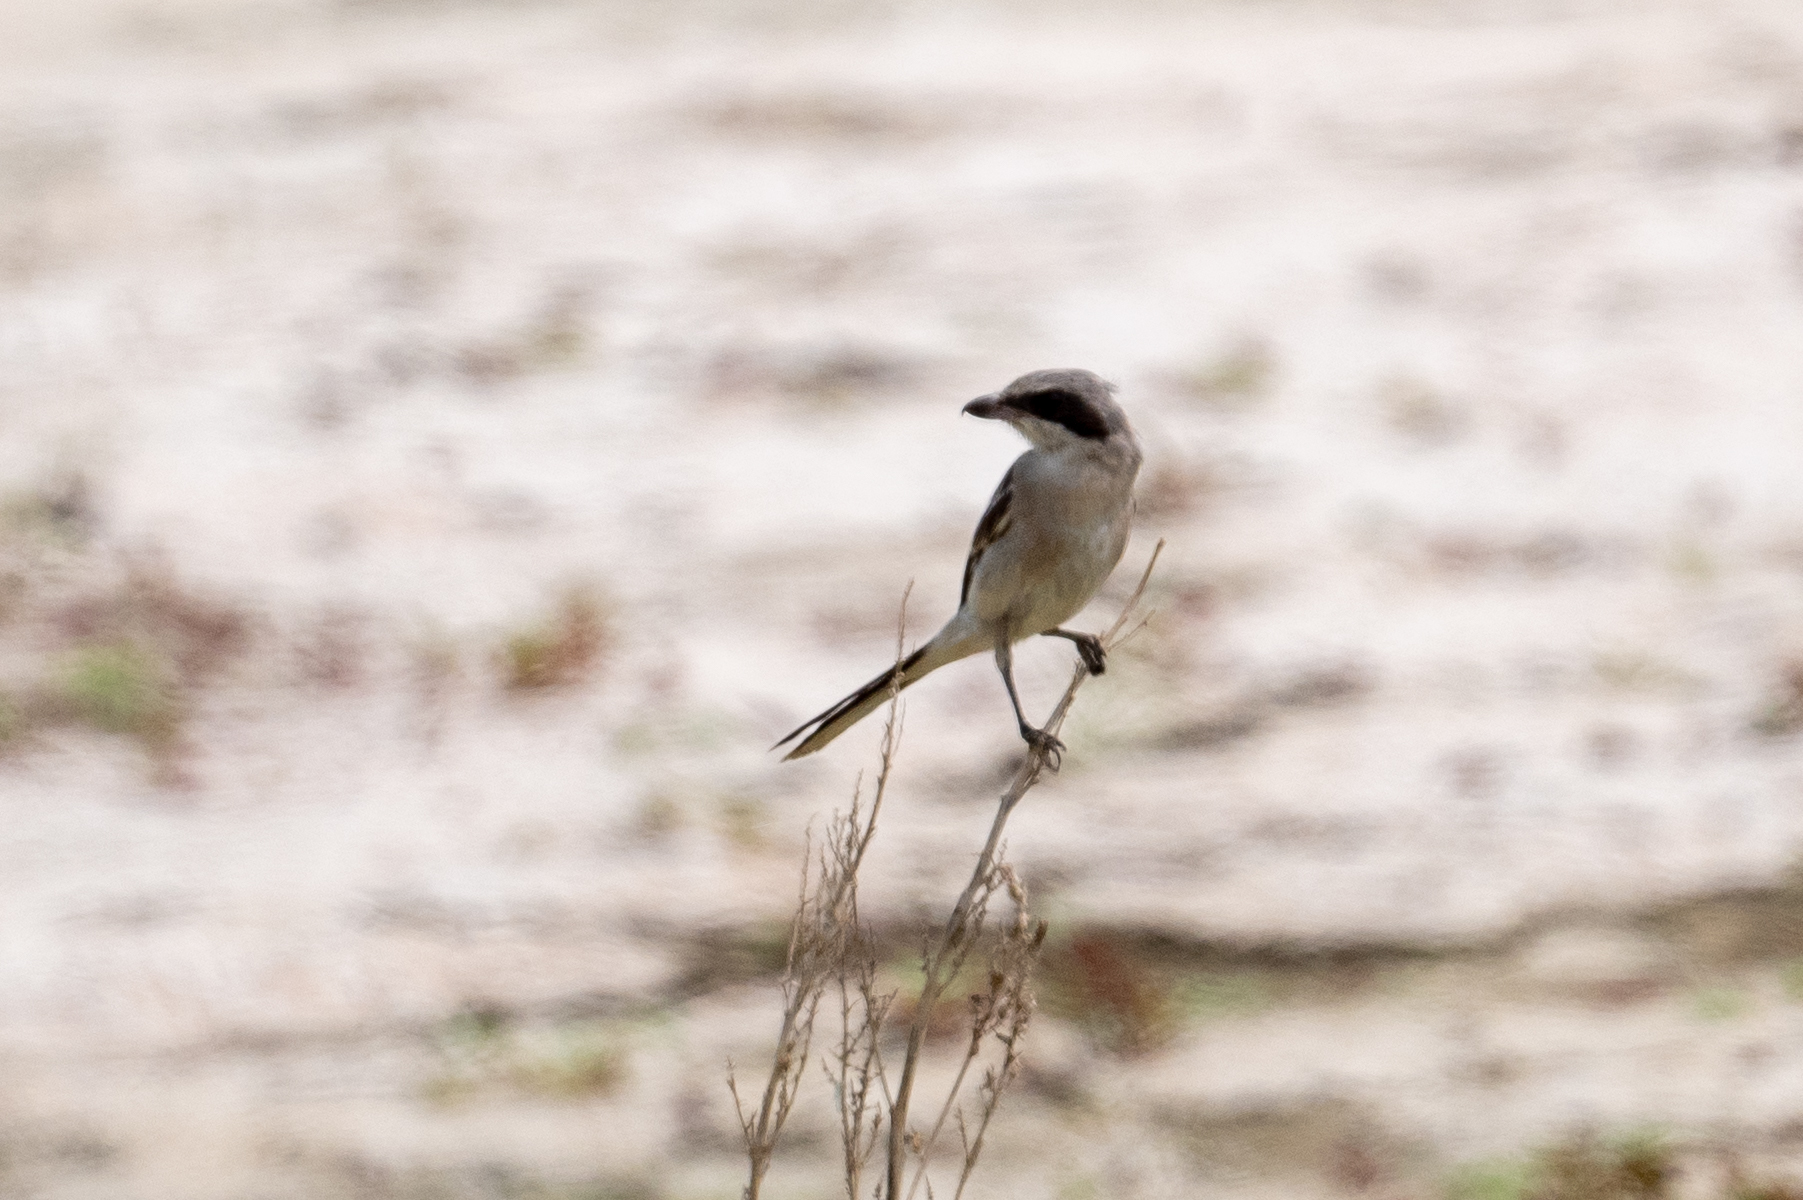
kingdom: Animalia
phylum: Chordata
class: Aves
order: Passeriformes
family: Laniidae
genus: Lanius
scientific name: Lanius ludovicianus
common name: Loggerhead shrike
